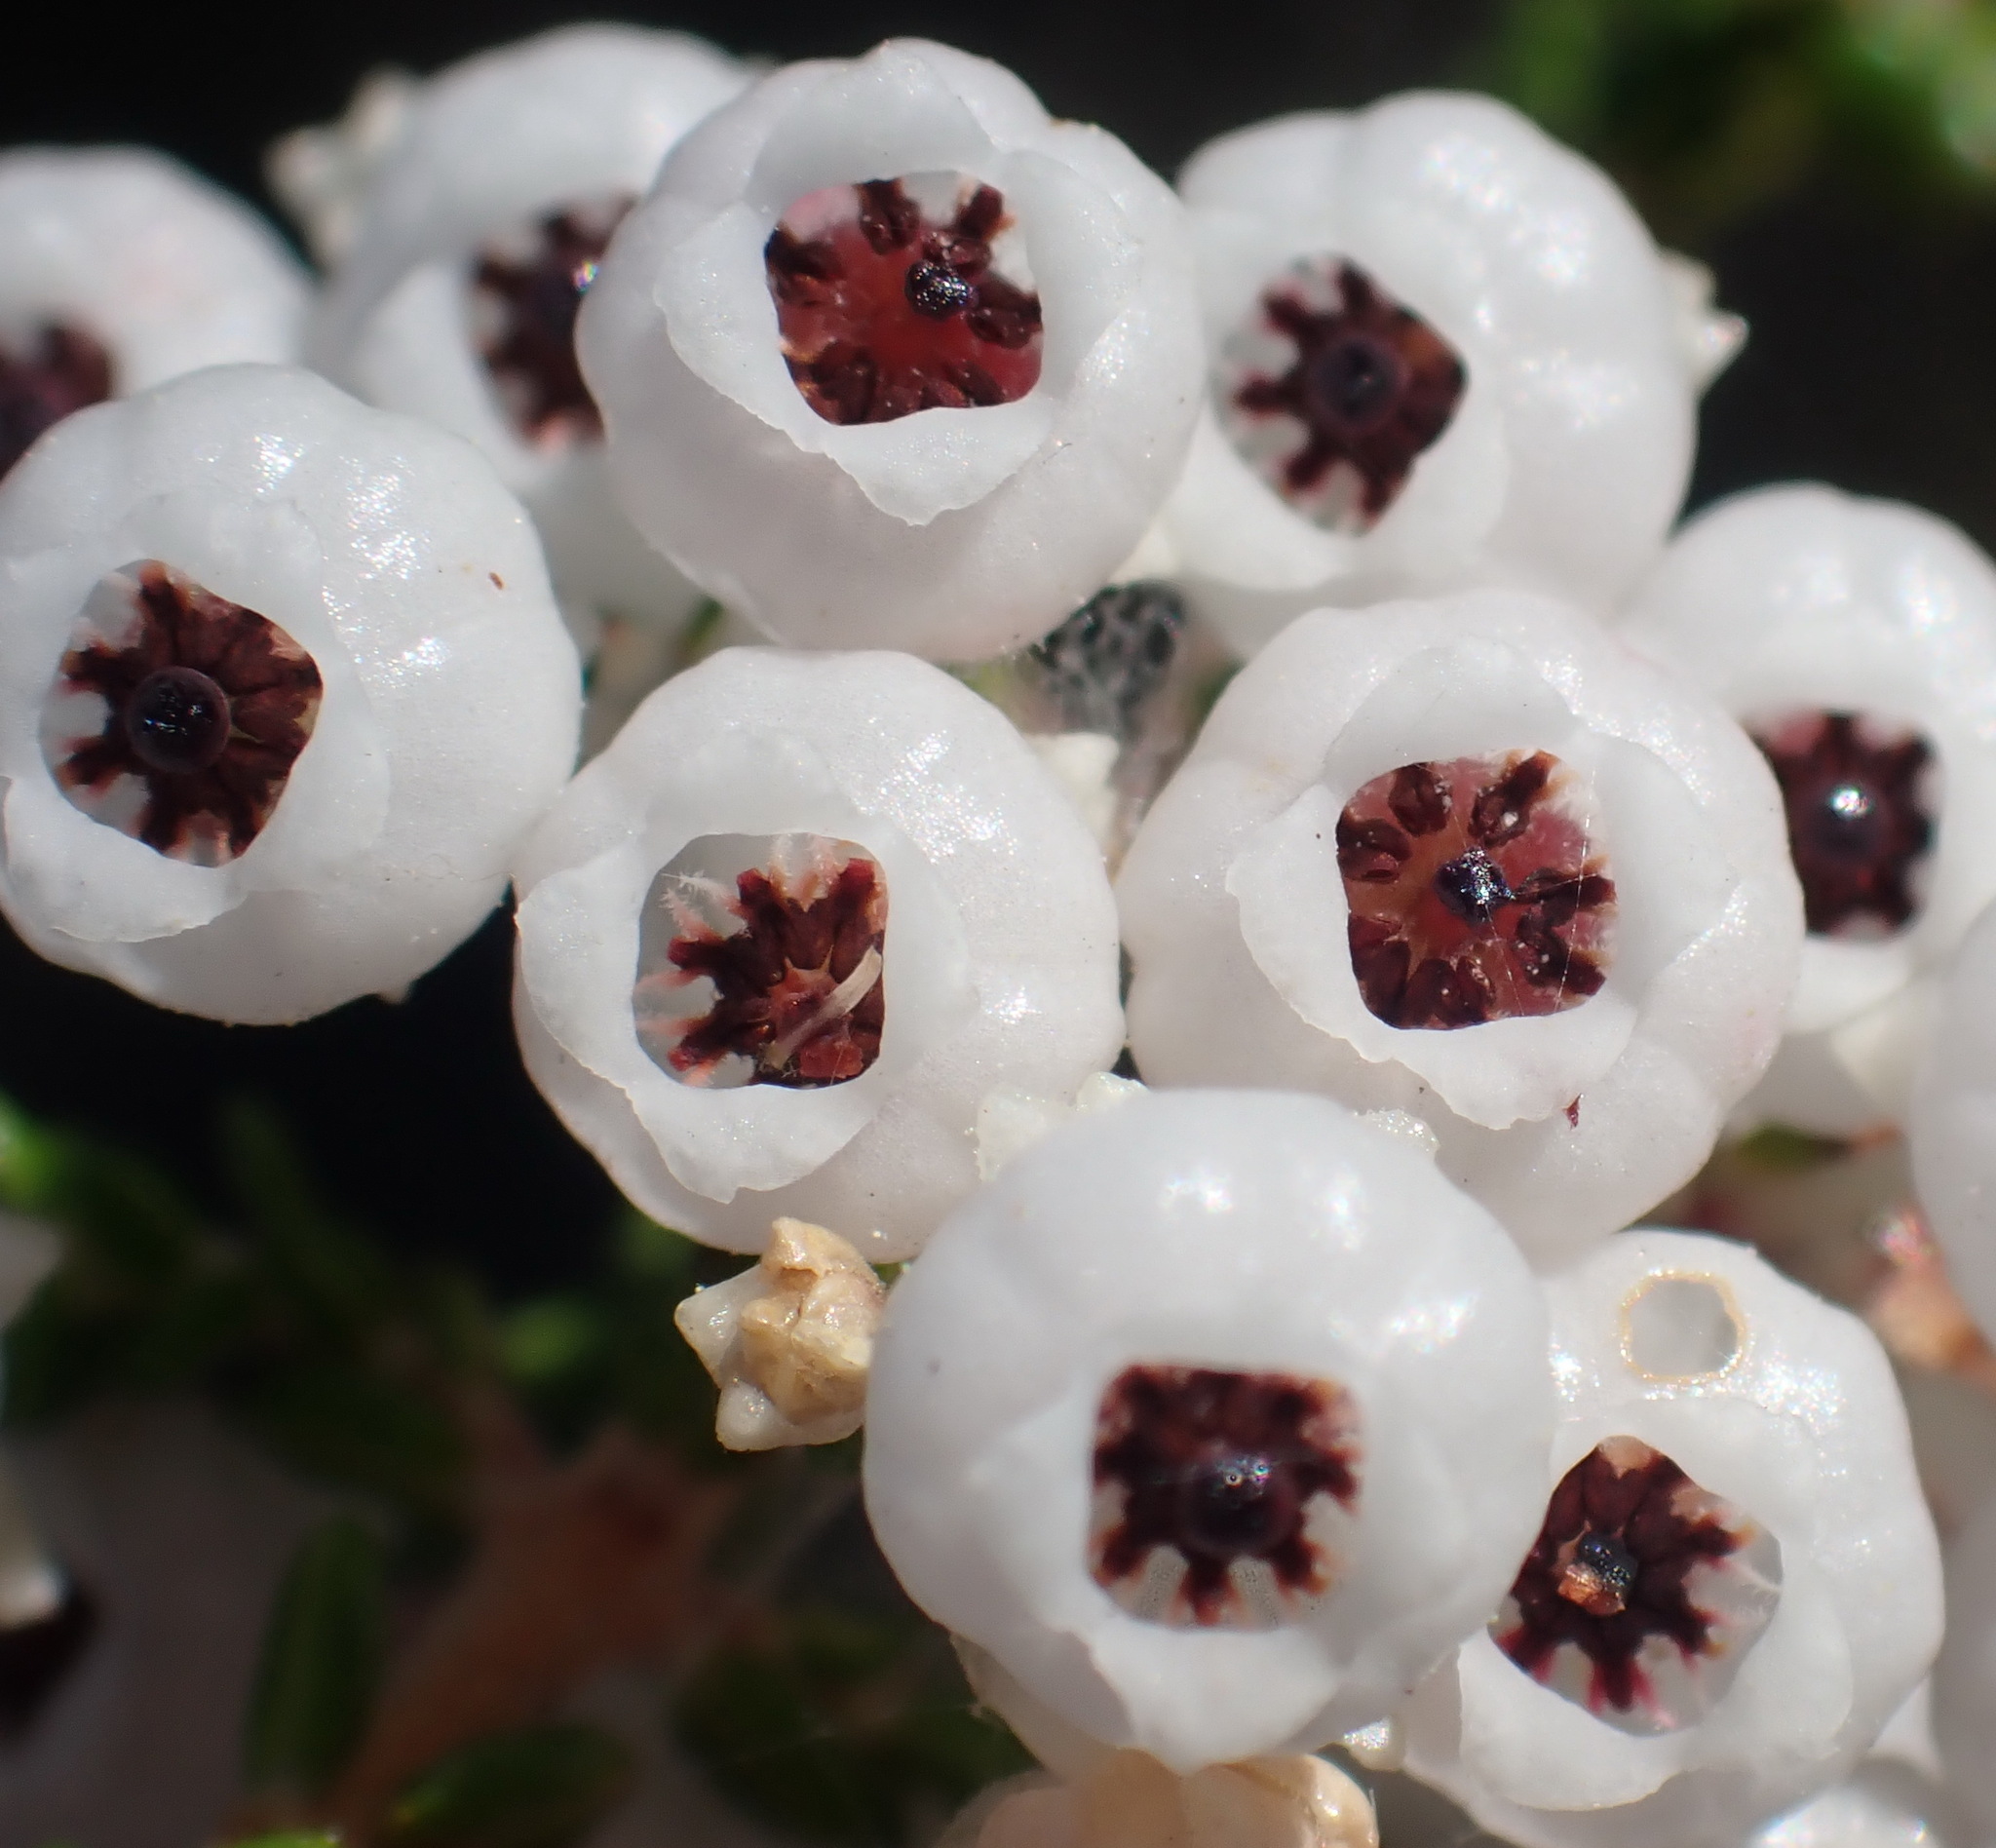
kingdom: Plantae
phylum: Tracheophyta
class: Magnoliopsida
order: Ericales
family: Ericaceae
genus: Erica
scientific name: Erica formosa
